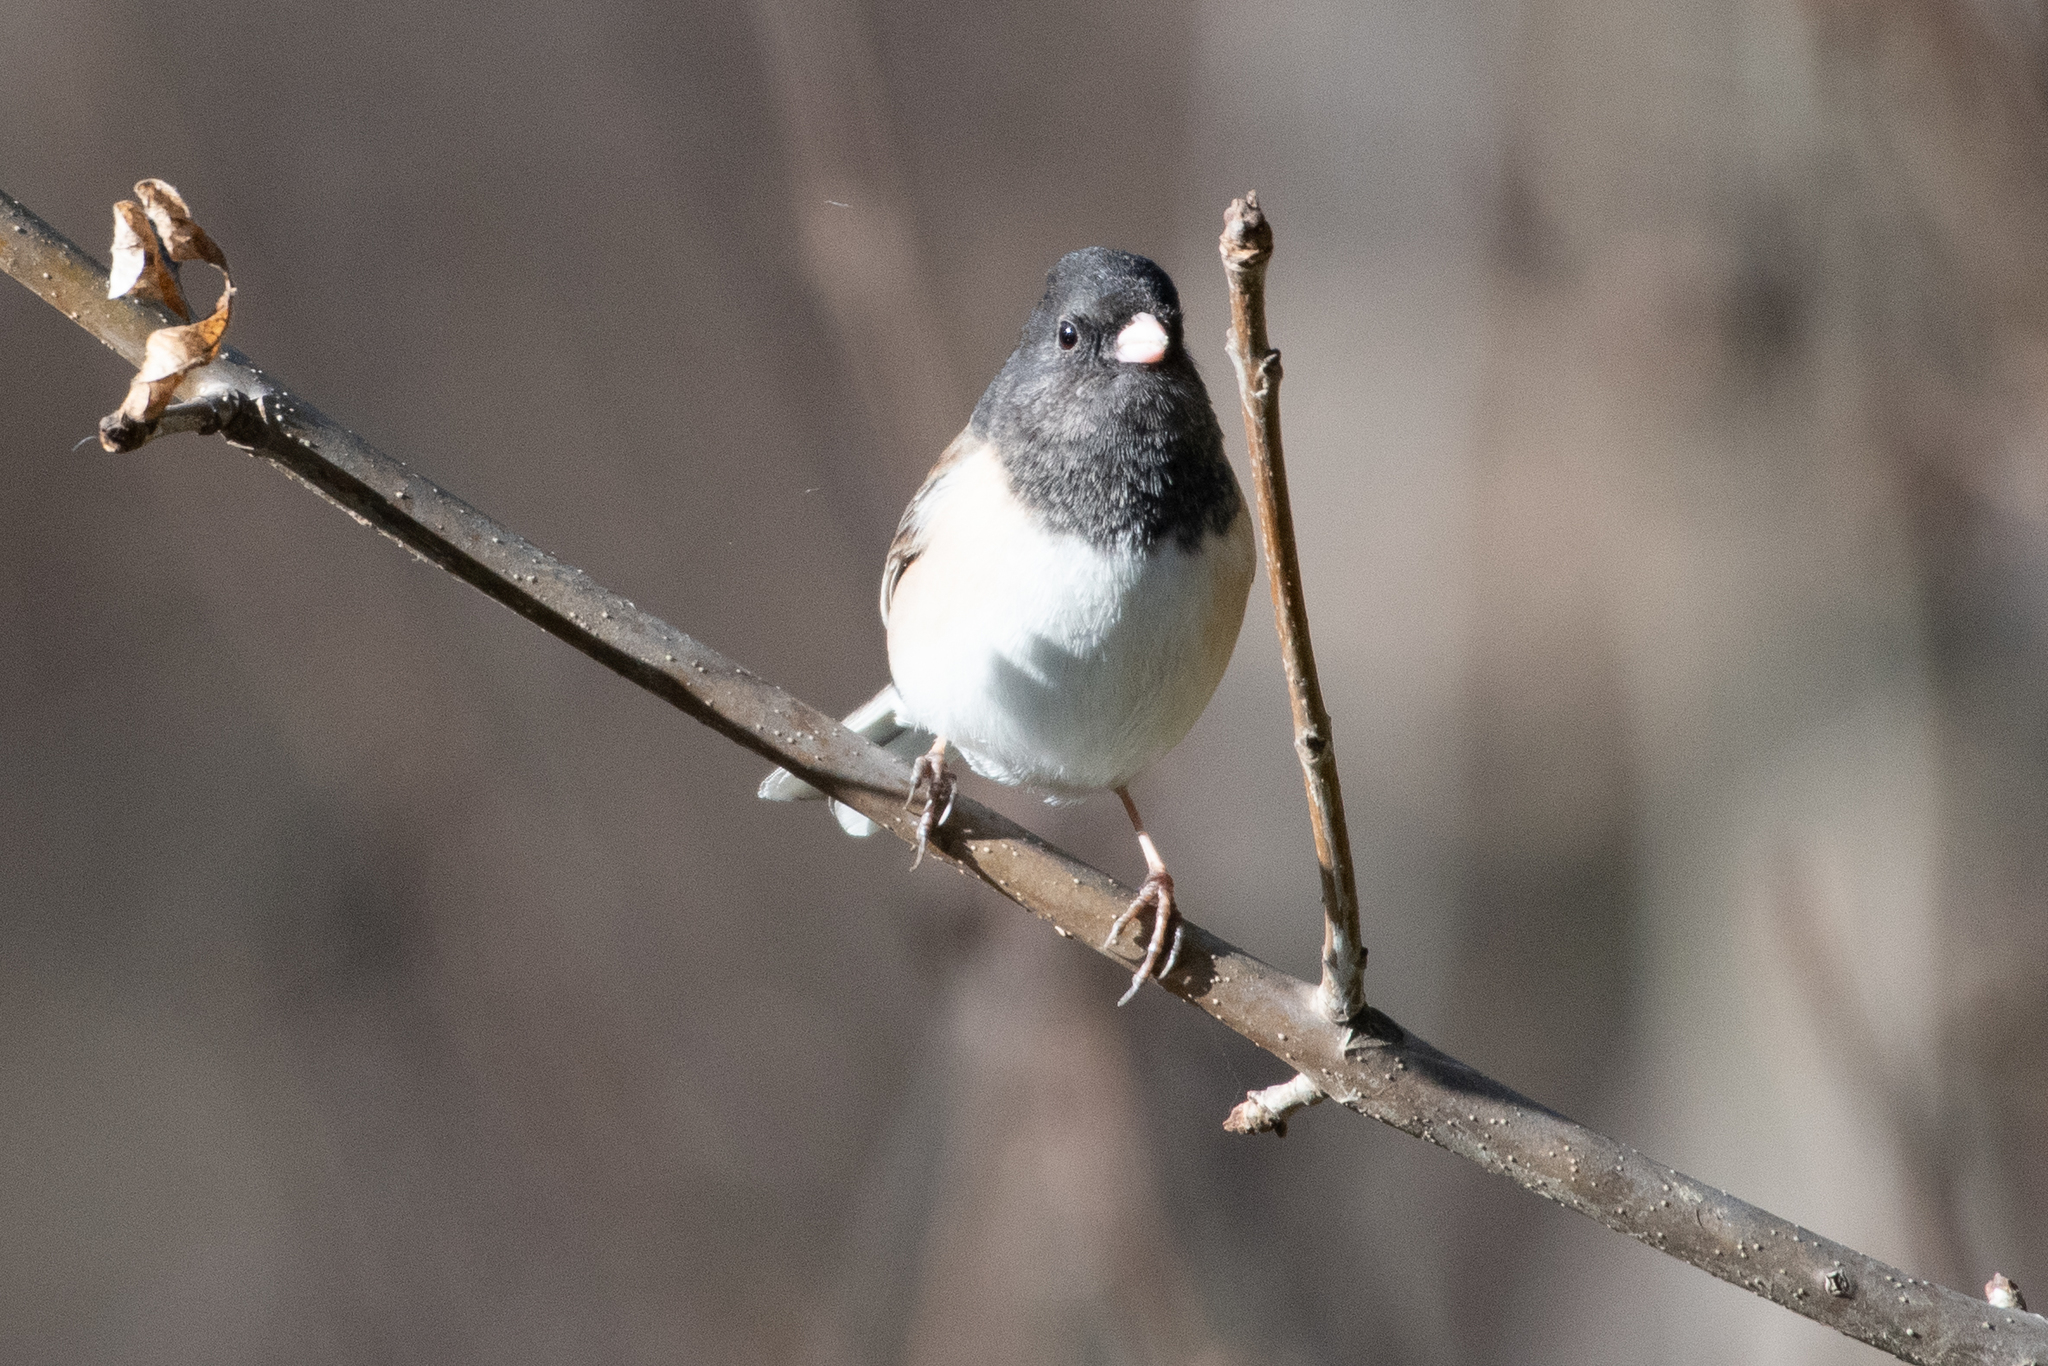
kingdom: Animalia
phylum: Chordata
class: Aves
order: Passeriformes
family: Passerellidae
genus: Junco
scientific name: Junco hyemalis
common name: Dark-eyed junco
